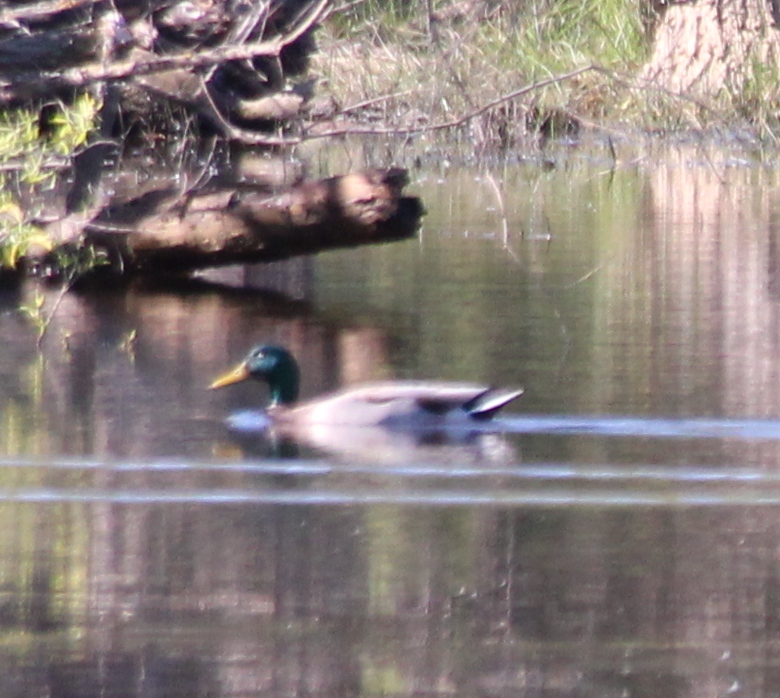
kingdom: Animalia
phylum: Chordata
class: Aves
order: Anseriformes
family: Anatidae
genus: Anas
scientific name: Anas platyrhynchos
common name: Mallard
